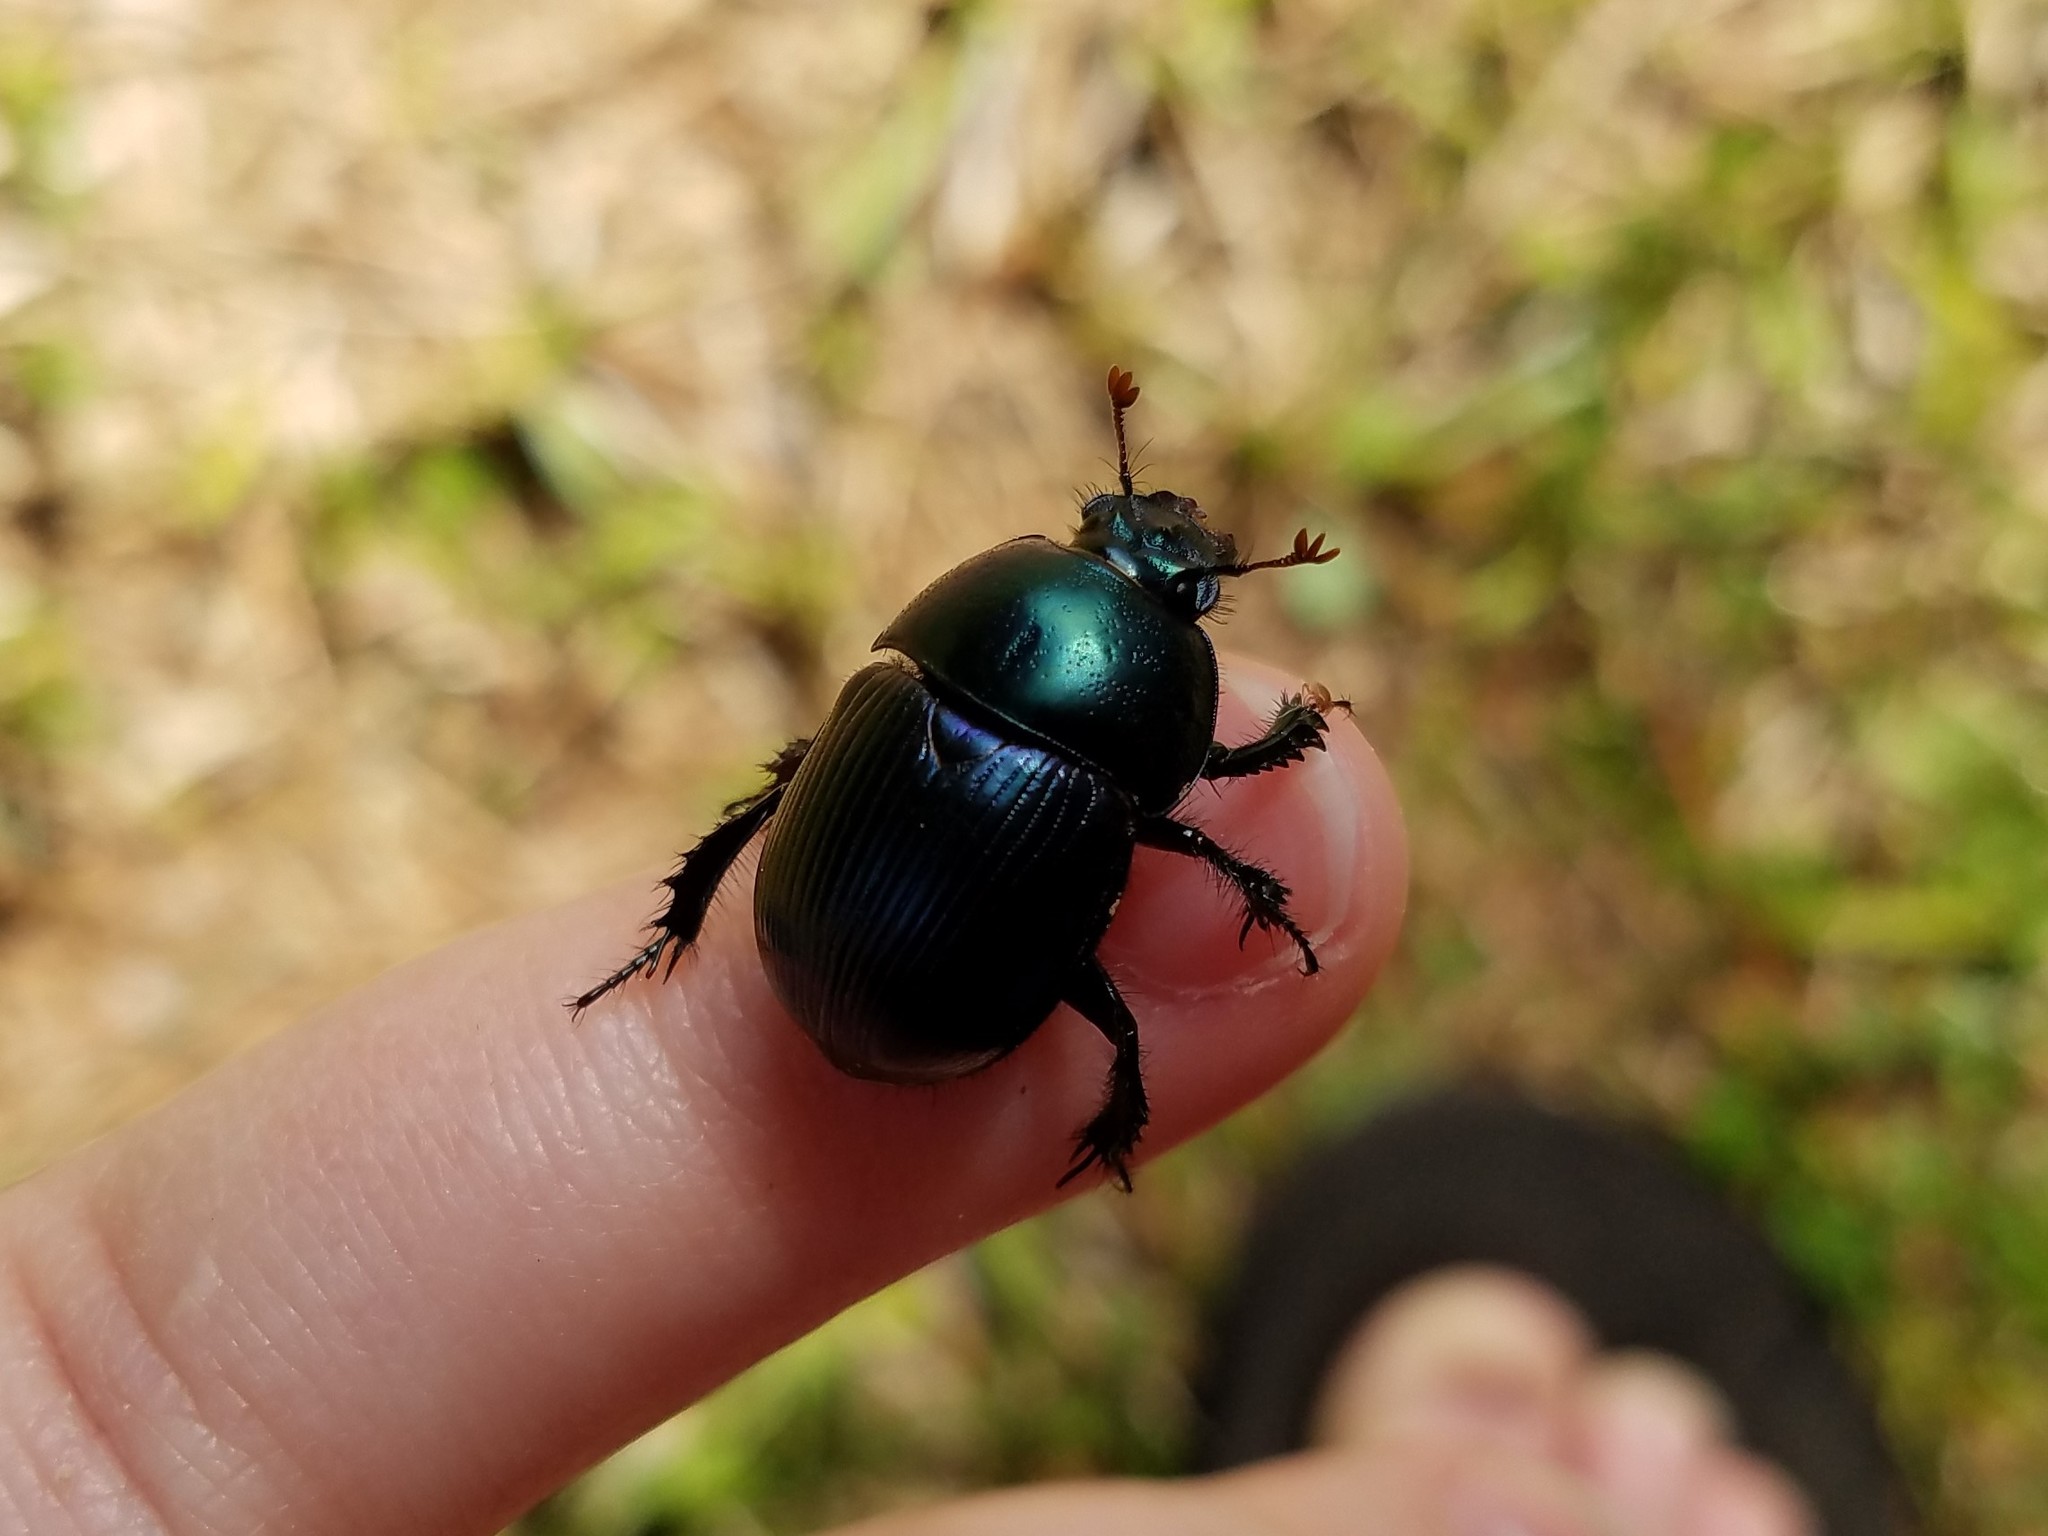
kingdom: Animalia
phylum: Arthropoda
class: Insecta
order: Coleoptera
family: Geotrupidae
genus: Geotrupes
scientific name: Geotrupes splendidus
